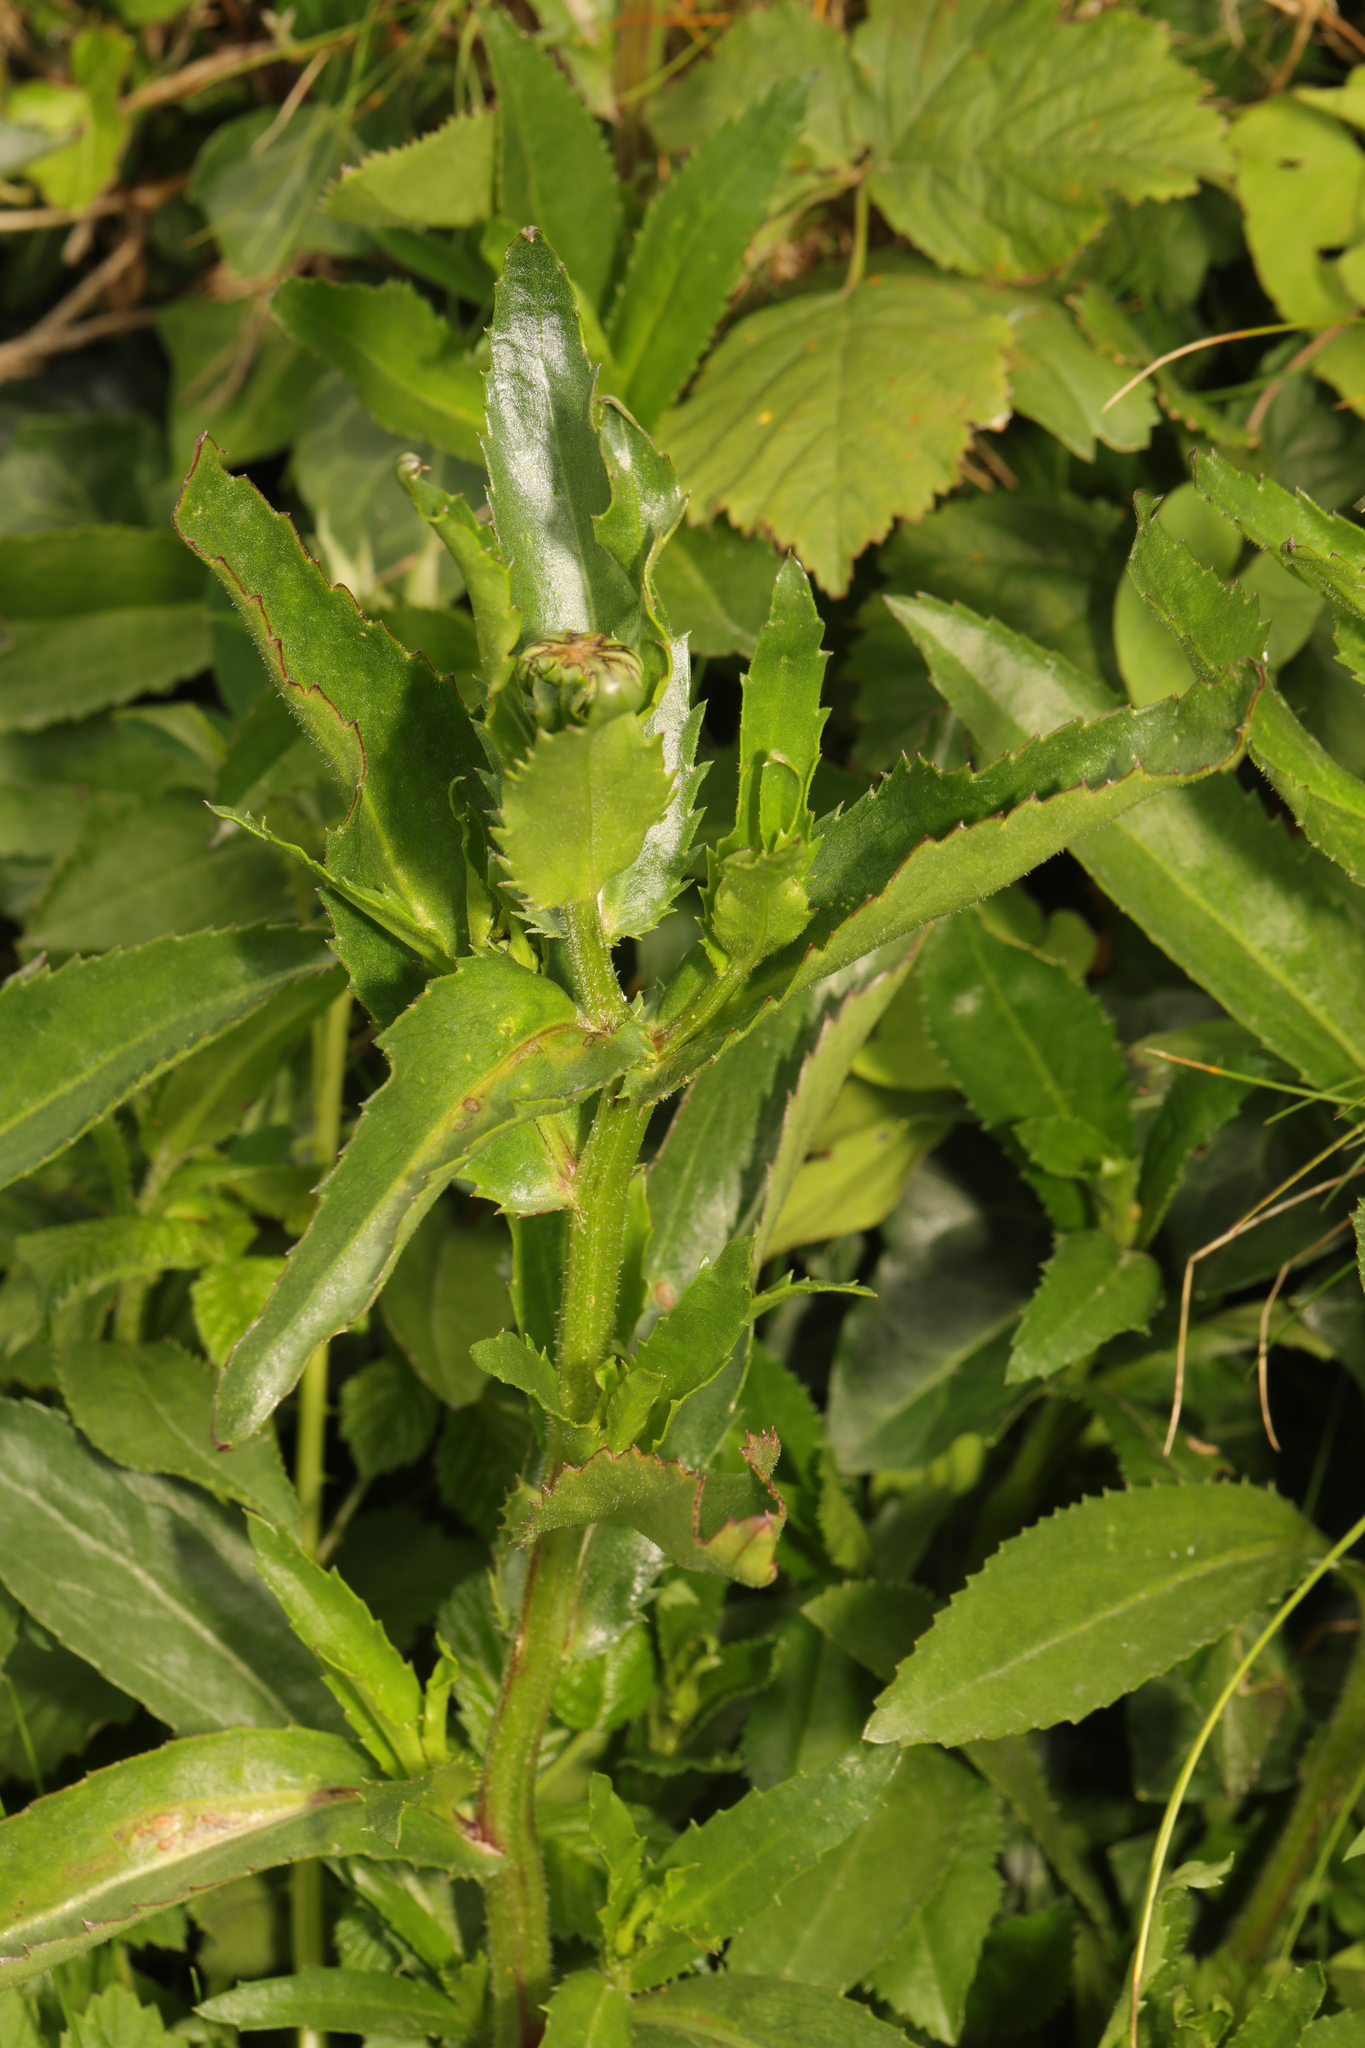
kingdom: Plantae
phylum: Tracheophyta
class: Magnoliopsida
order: Asterales
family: Asteraceae
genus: Leucanthemum
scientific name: Leucanthemum maximum
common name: Max chrysanthemum
